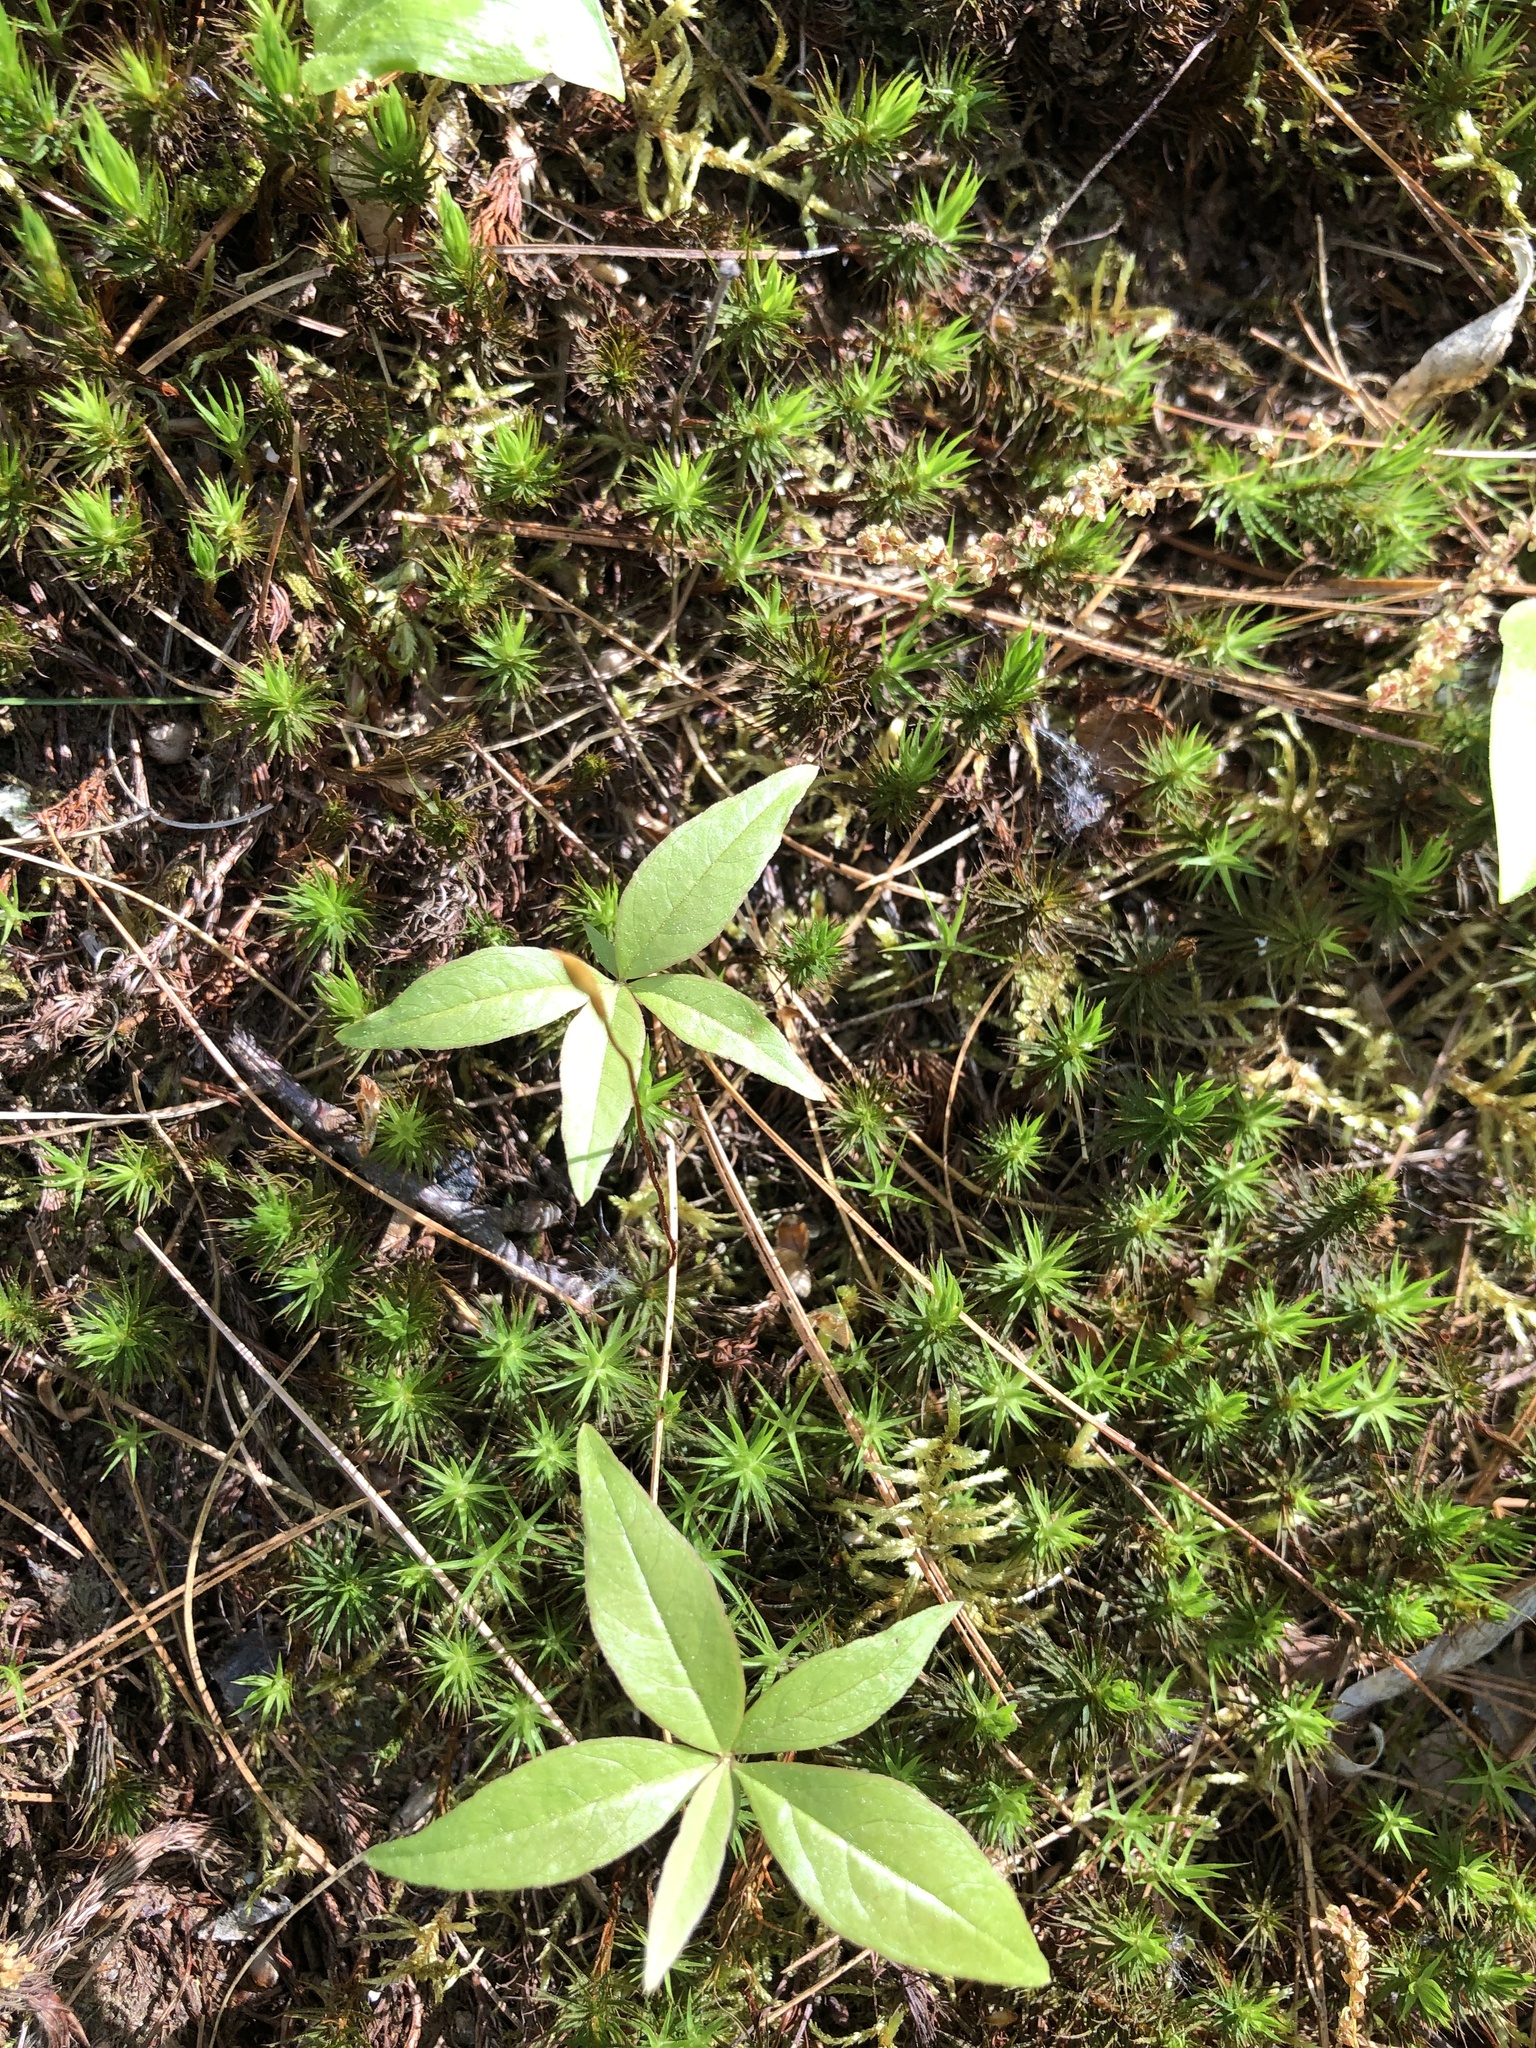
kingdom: Plantae
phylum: Tracheophyta
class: Magnoliopsida
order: Ericales
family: Primulaceae
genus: Lysimachia
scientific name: Lysimachia borealis
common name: American starflower
